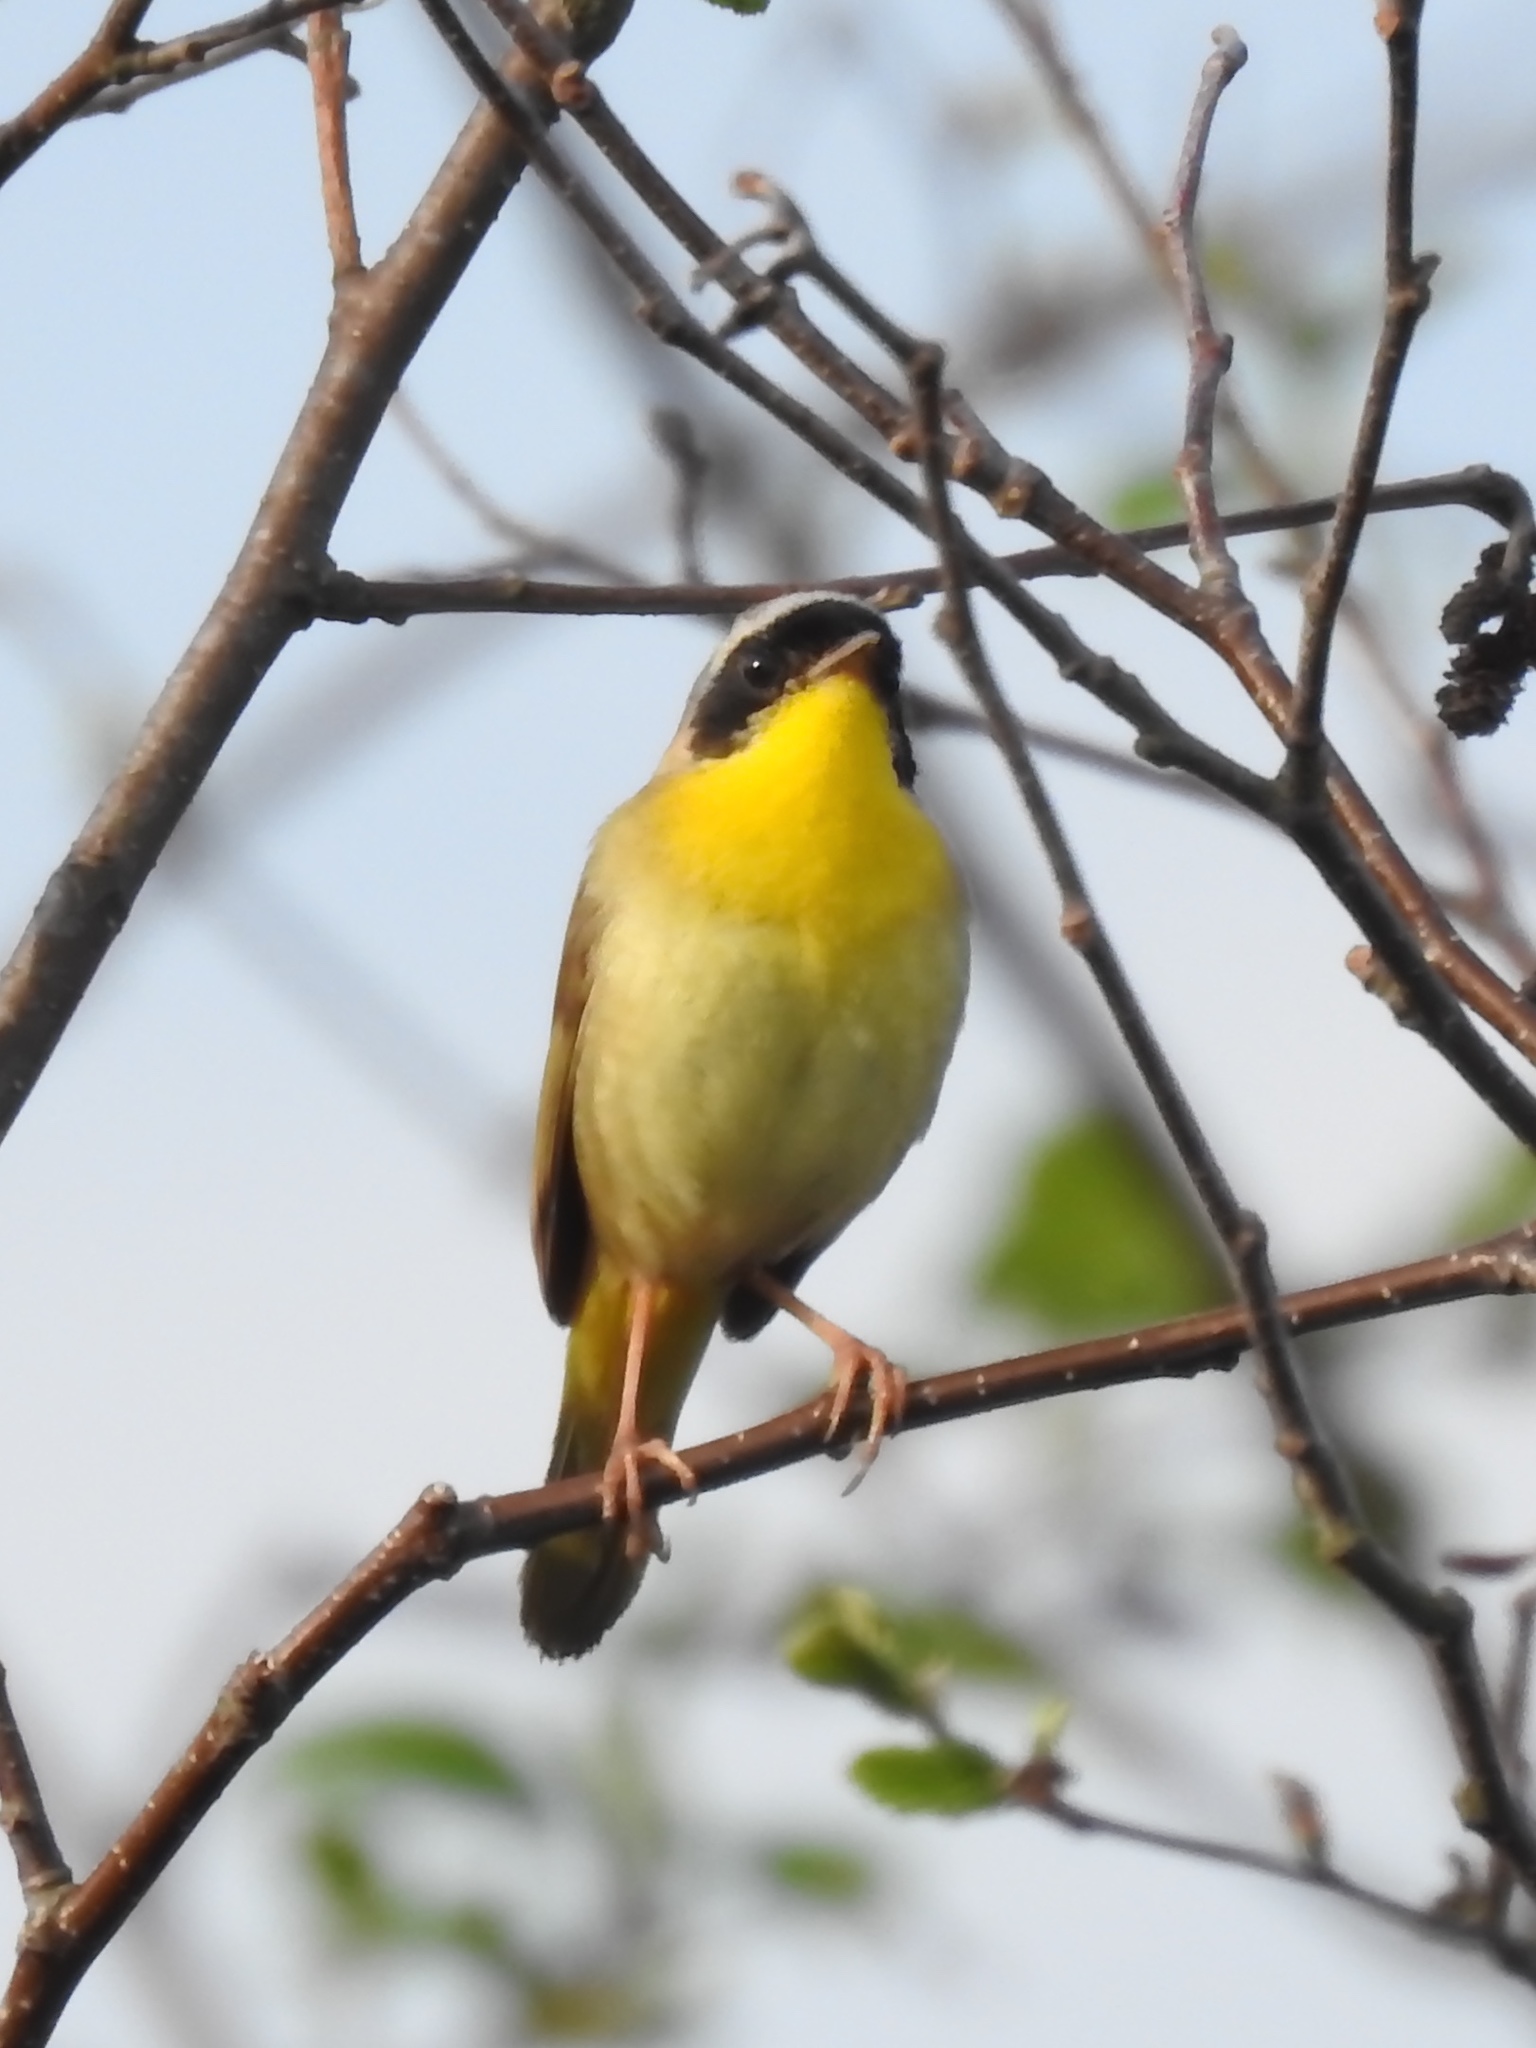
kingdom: Animalia
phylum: Chordata
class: Aves
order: Passeriformes
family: Parulidae
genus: Geothlypis
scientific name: Geothlypis trichas
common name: Common yellowthroat
